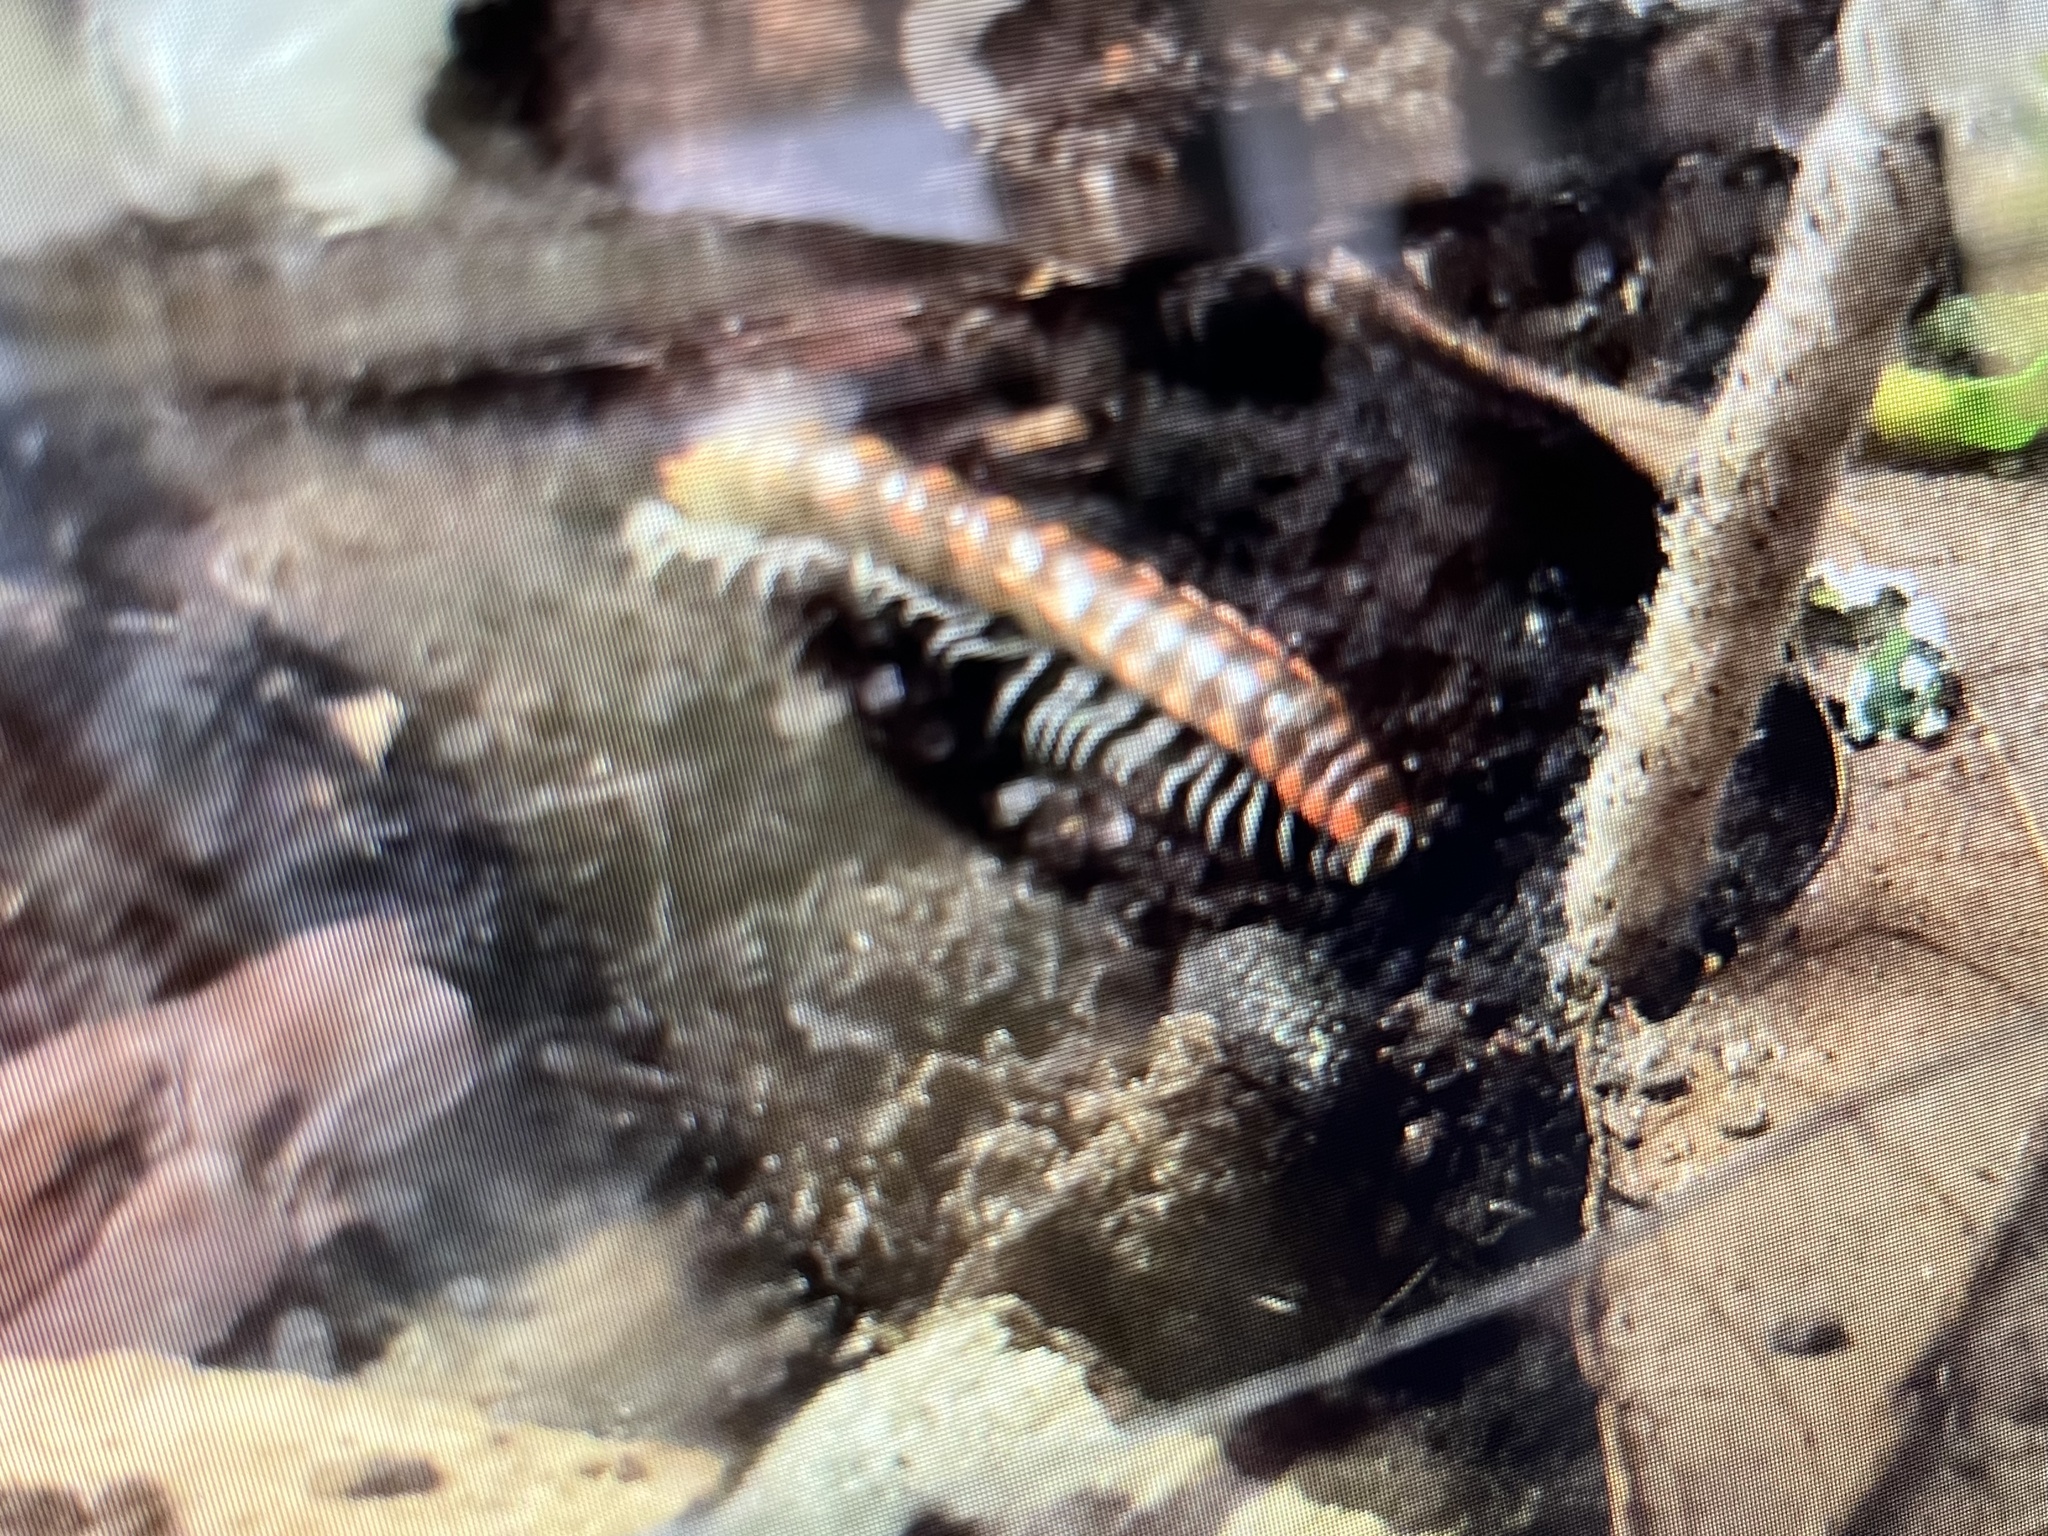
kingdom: Animalia
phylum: Arthropoda
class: Diplopoda
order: Polydesmida
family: Xystodesmidae
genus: Euryurus
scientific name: Euryurus maculatus
